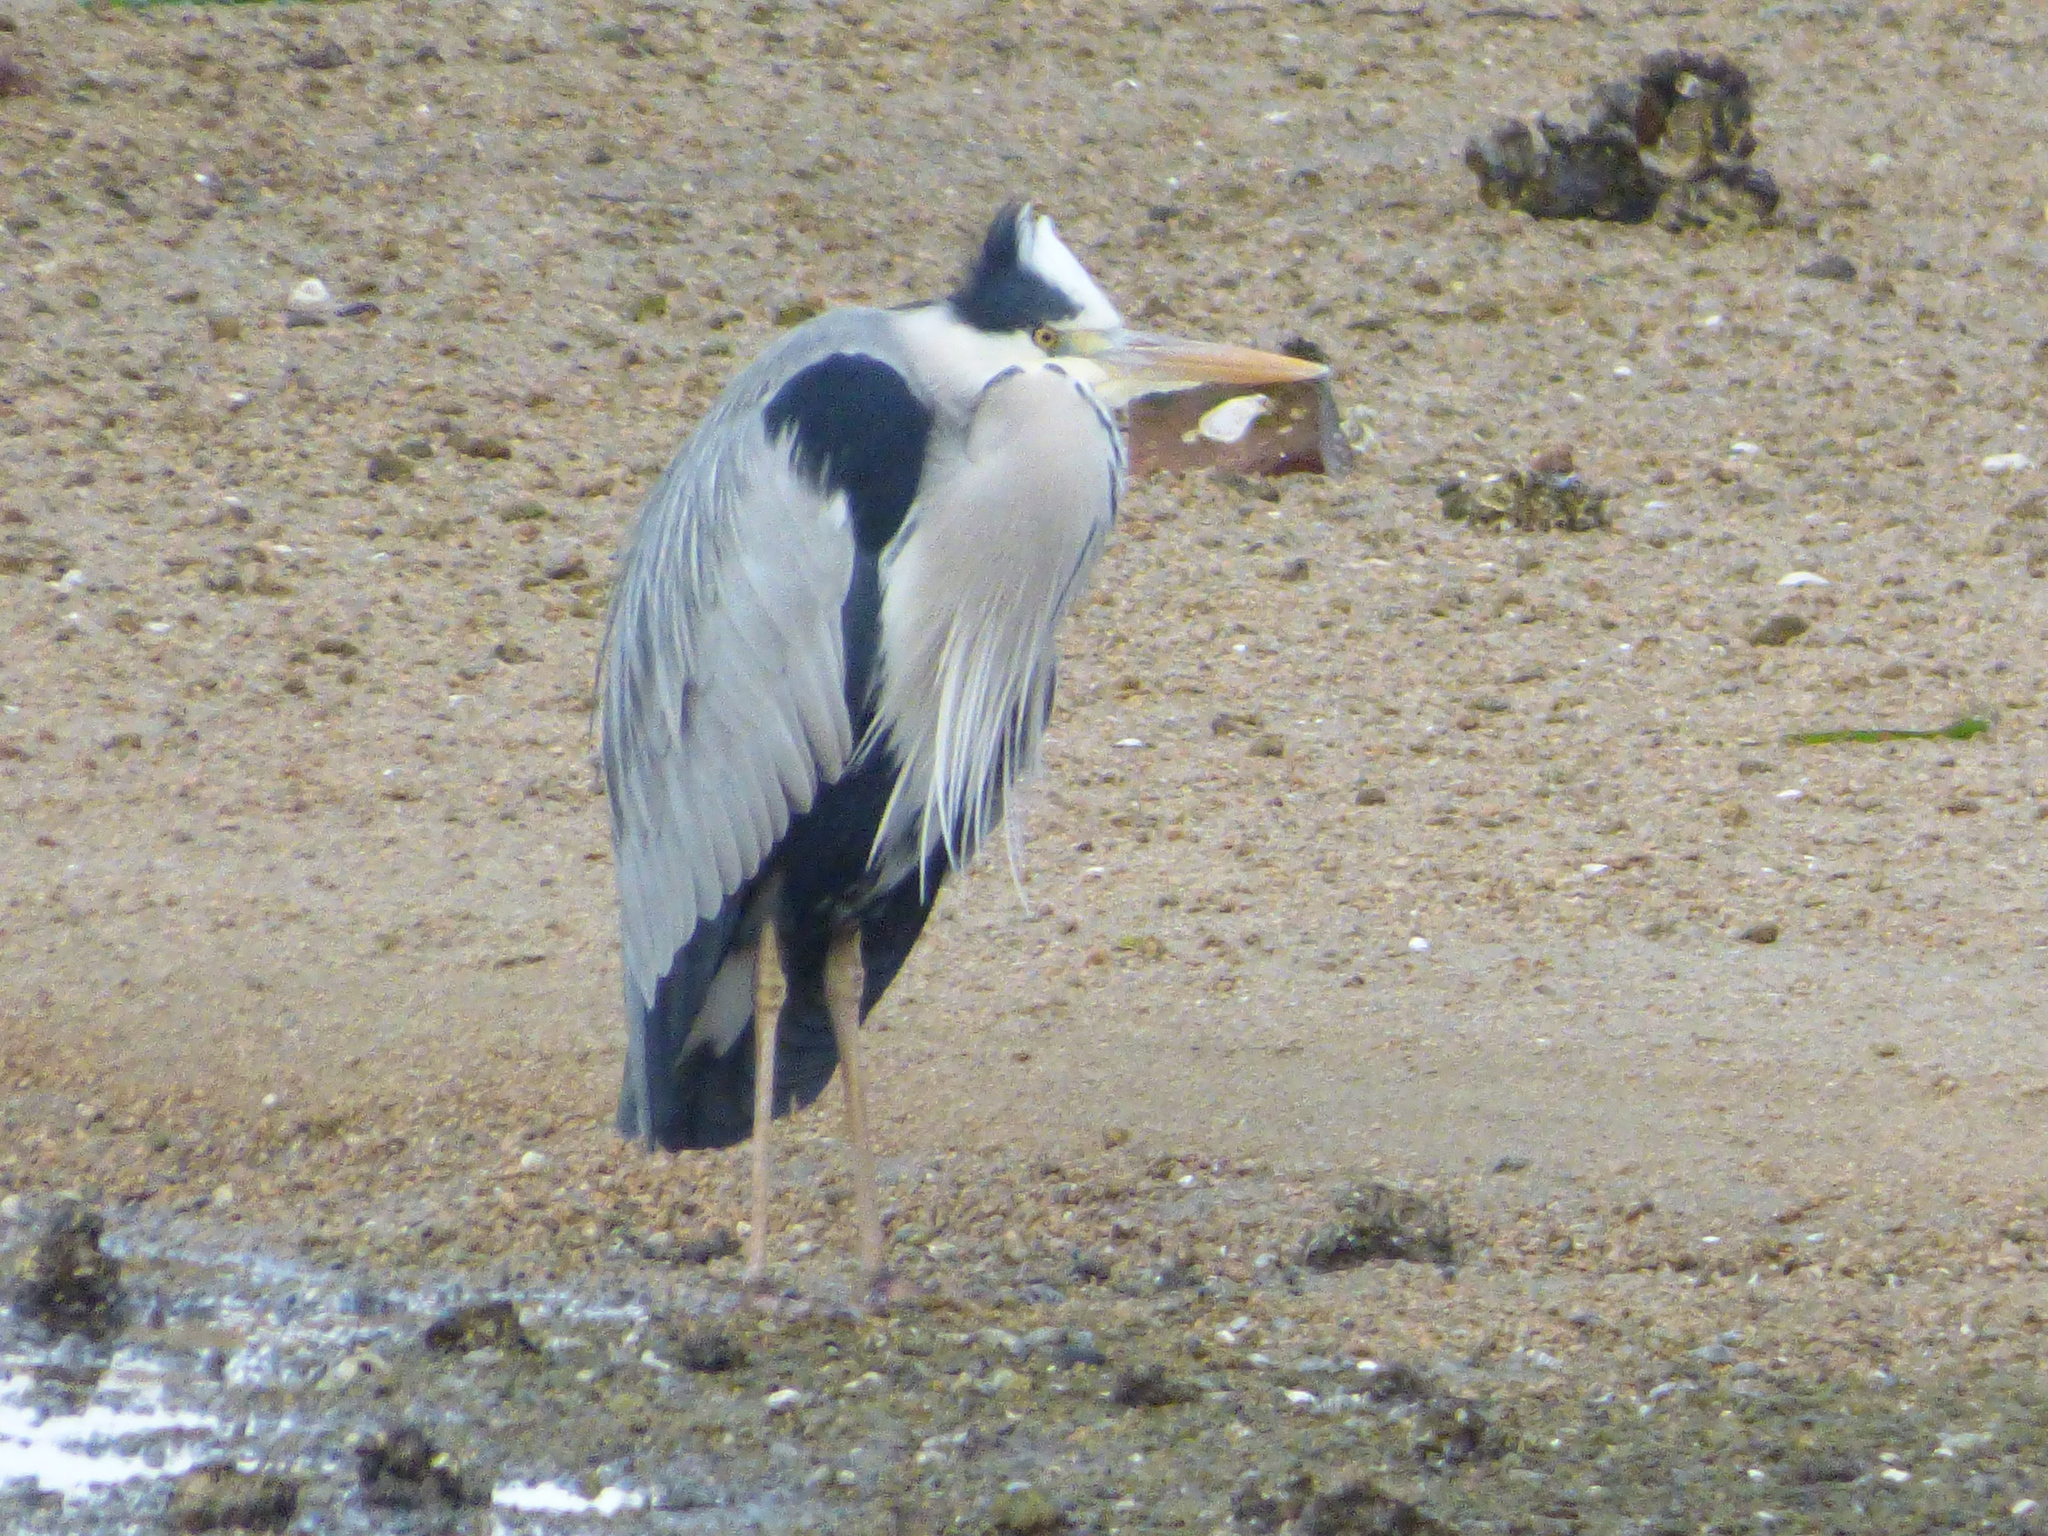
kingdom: Animalia
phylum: Chordata
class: Aves
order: Pelecaniformes
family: Ardeidae
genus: Ardea
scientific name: Ardea cinerea
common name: Grey heron
